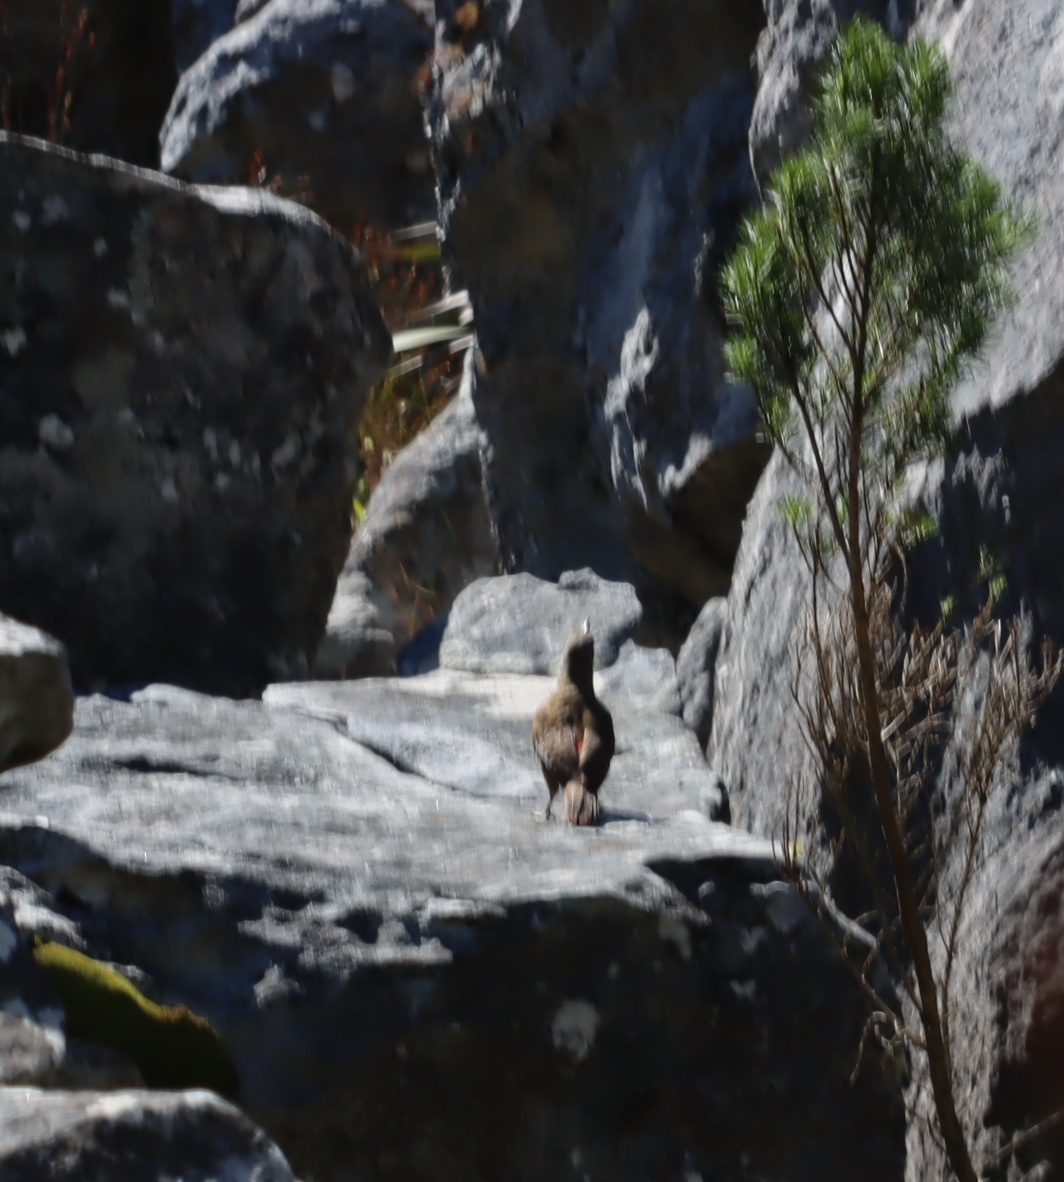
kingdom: Animalia
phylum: Chordata
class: Aves
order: Piciformes
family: Picidae
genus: Geocolaptes
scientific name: Geocolaptes olivaceus
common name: Ground woodpecker
